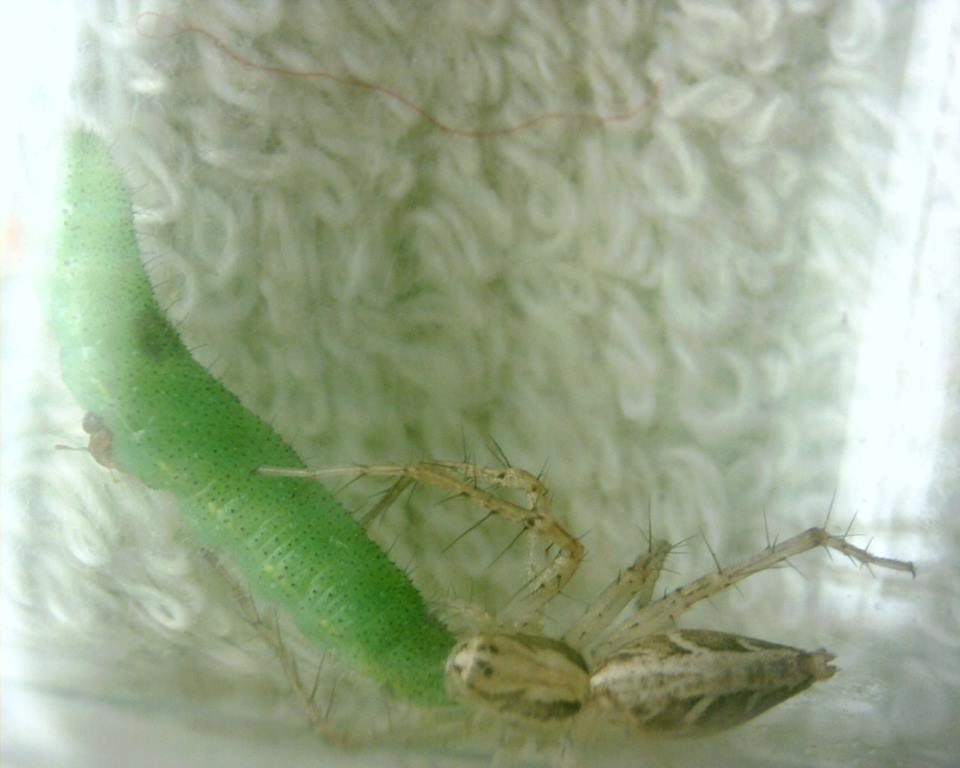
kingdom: Animalia
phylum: Arthropoda
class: Arachnida
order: Araneae
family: Oxyopidae
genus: Oxyopes
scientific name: Oxyopes sertatus
